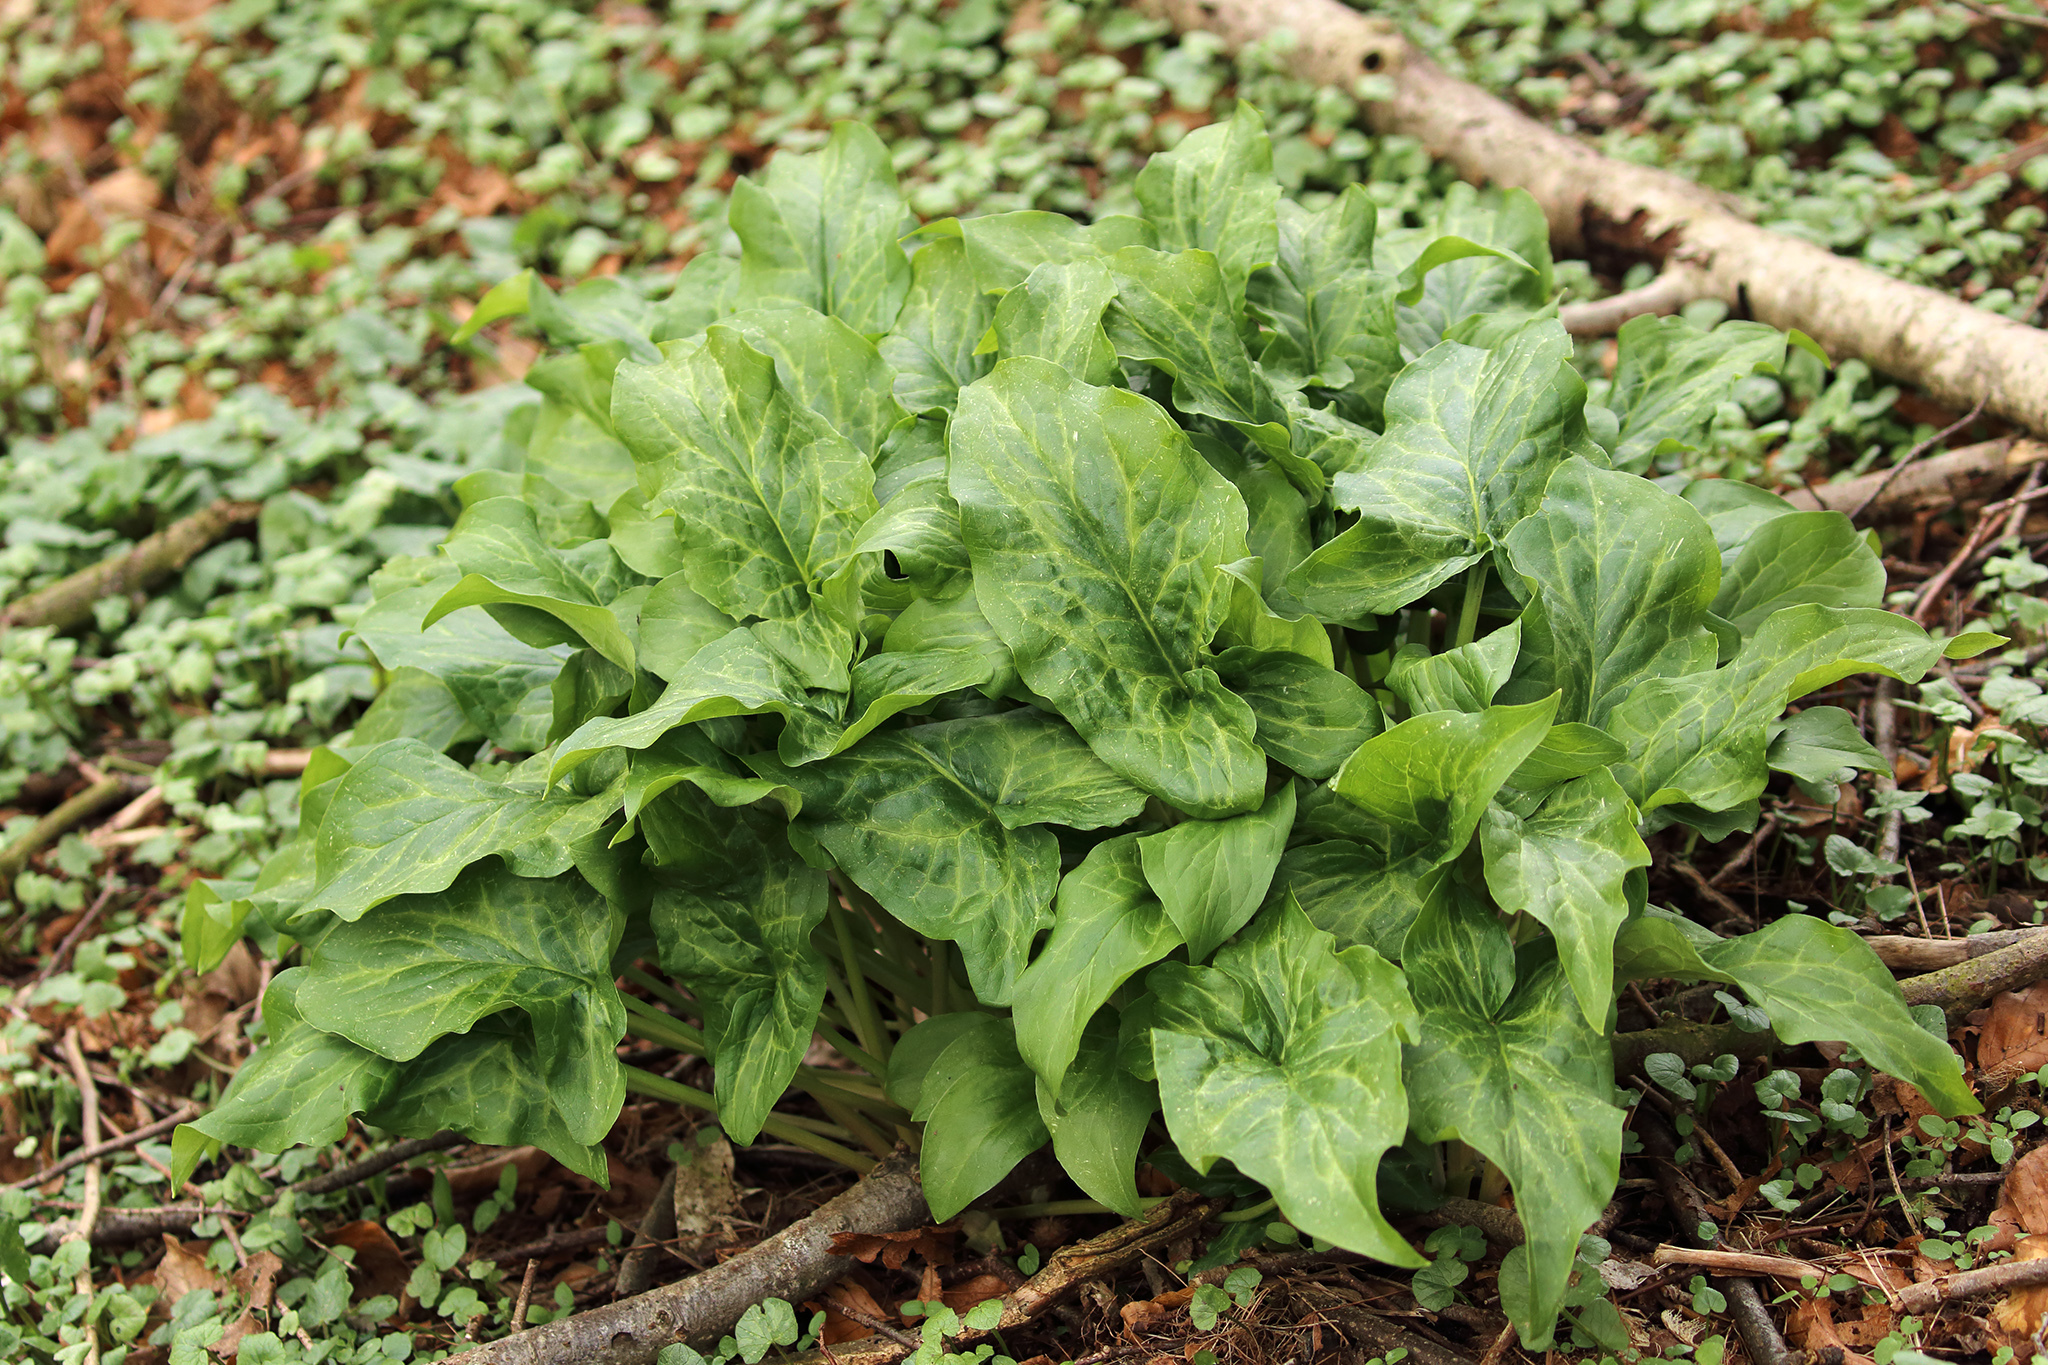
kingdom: Plantae
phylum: Tracheophyta
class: Liliopsida
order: Alismatales
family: Araceae
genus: Arum
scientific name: Arum italicum
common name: Italian lords-and-ladies
